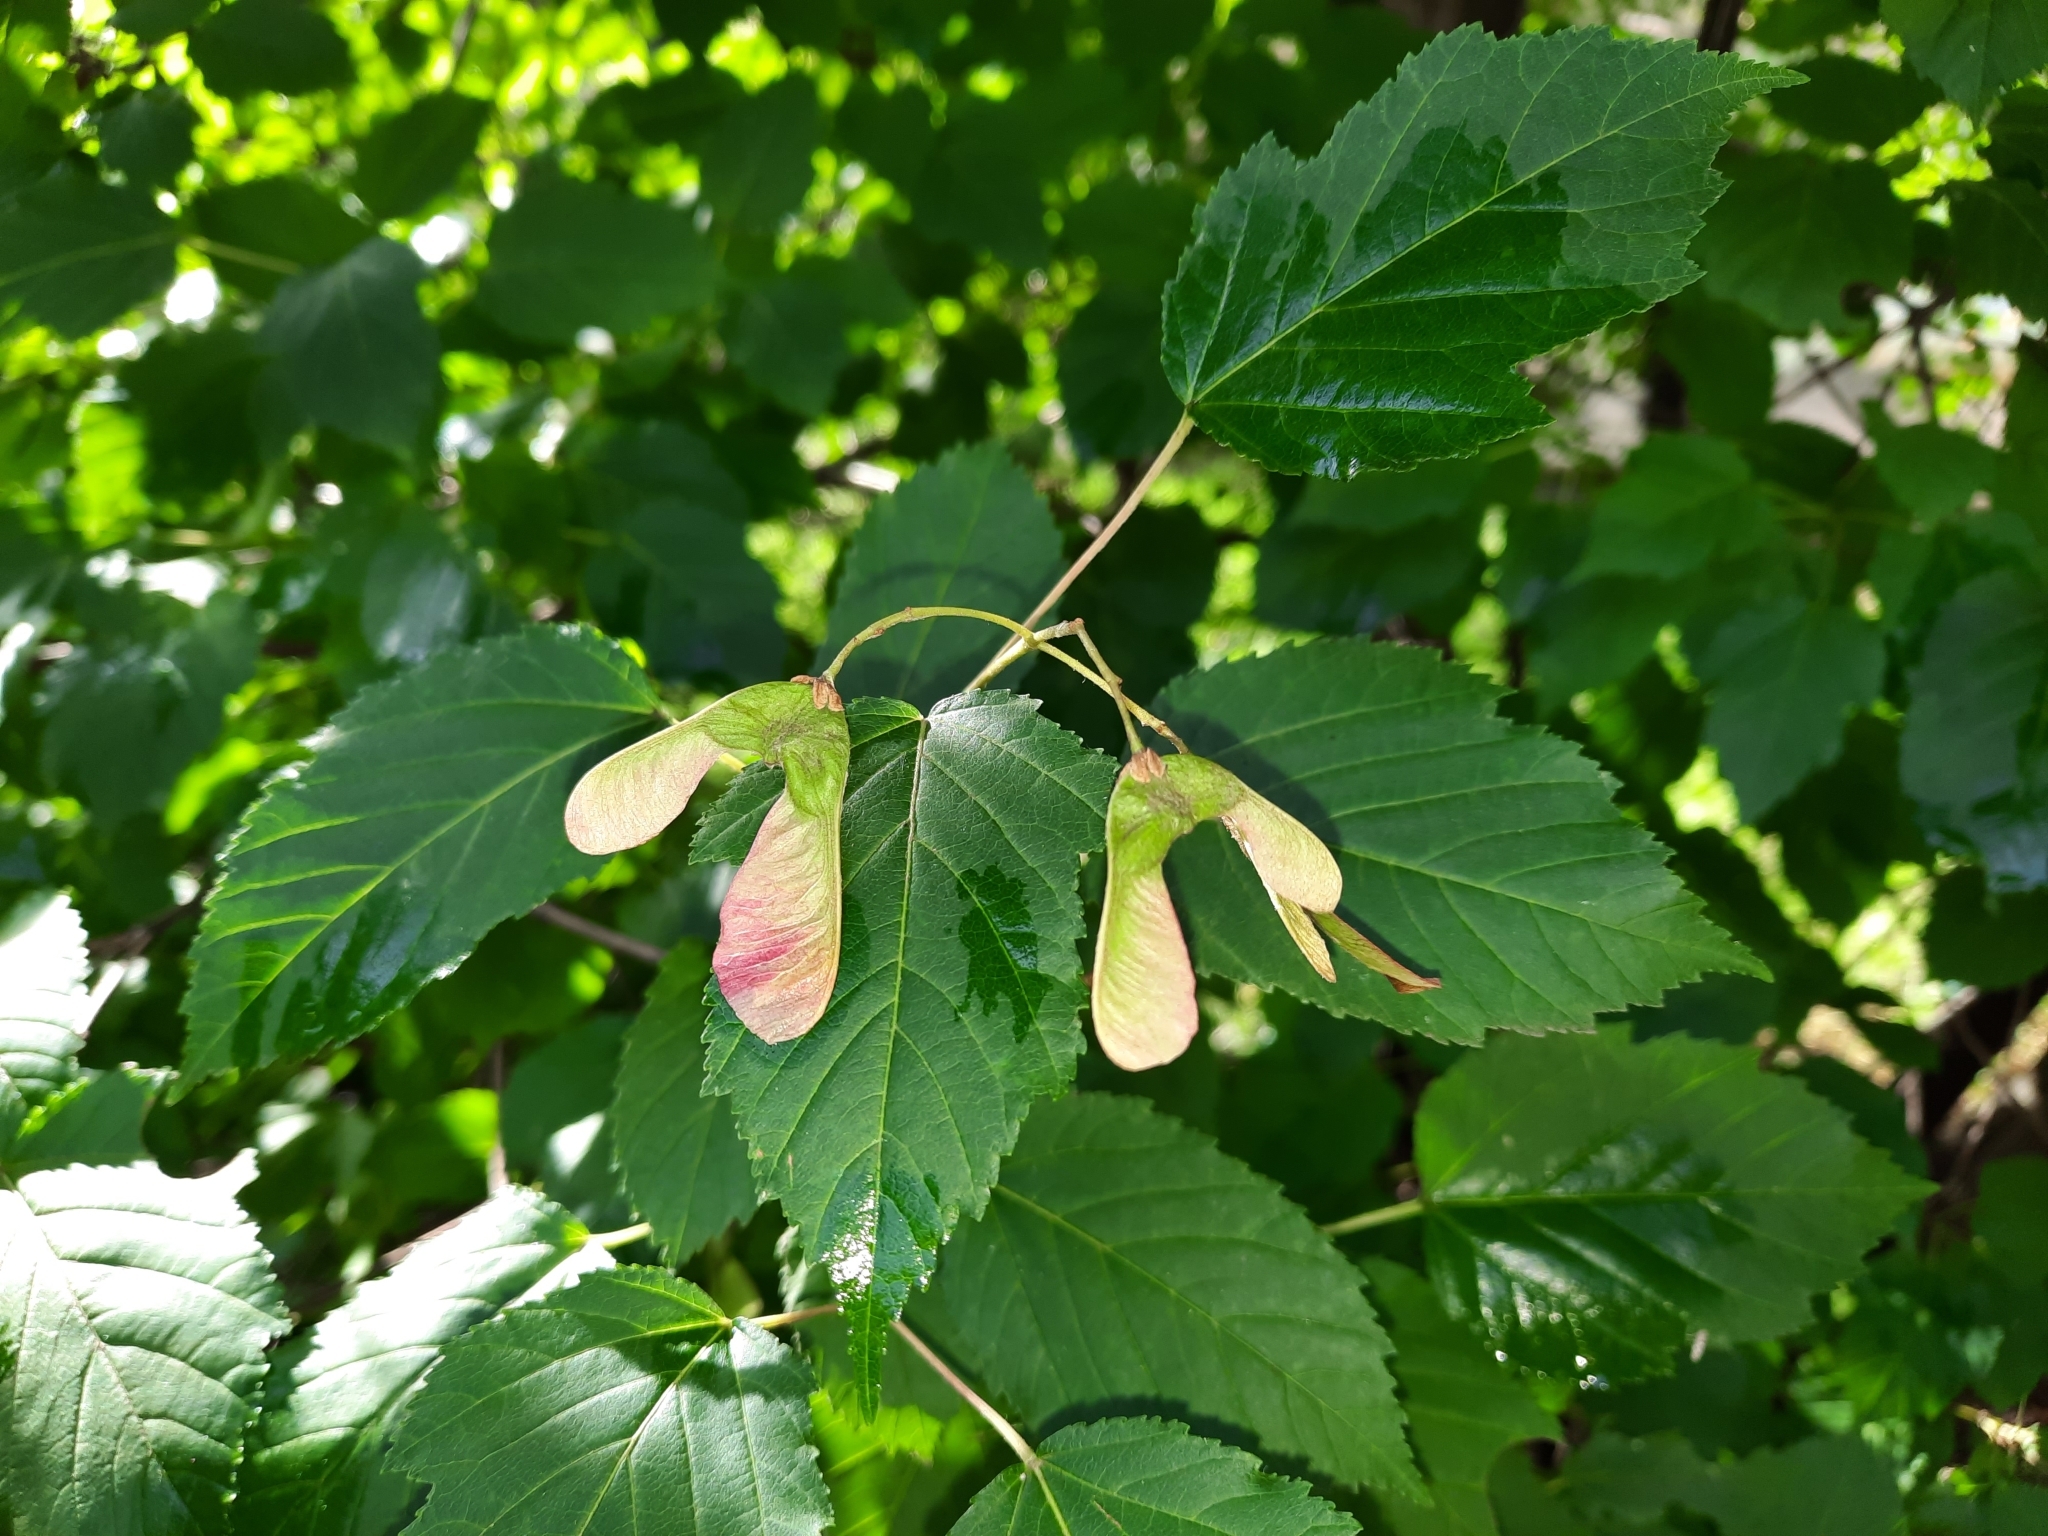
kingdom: Plantae
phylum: Tracheophyta
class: Magnoliopsida
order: Sapindales
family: Sapindaceae
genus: Acer
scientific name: Acer tataricum
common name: Tartar maple
